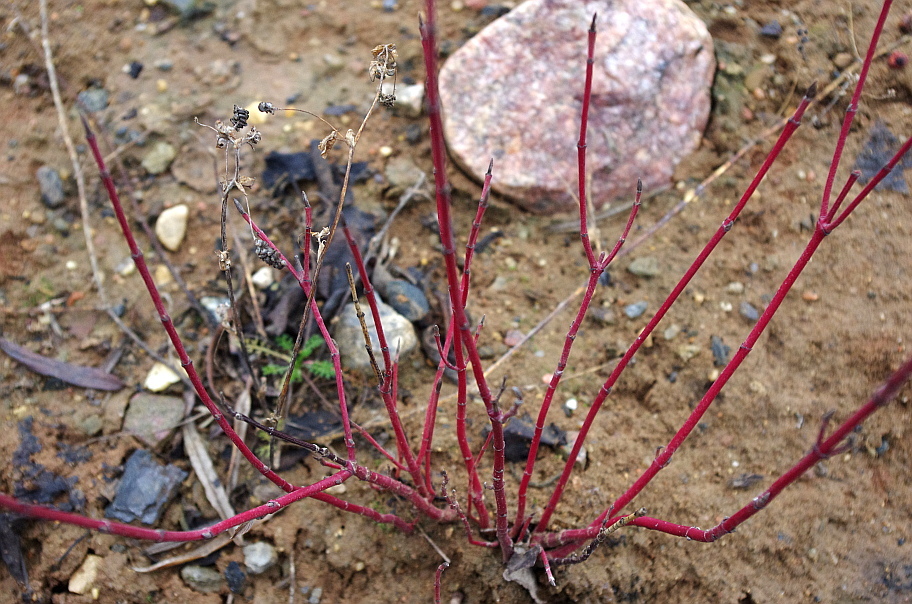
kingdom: Plantae
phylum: Tracheophyta
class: Magnoliopsida
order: Cornales
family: Cornaceae
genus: Cornus
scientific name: Cornus sericea
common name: Red-osier dogwood
